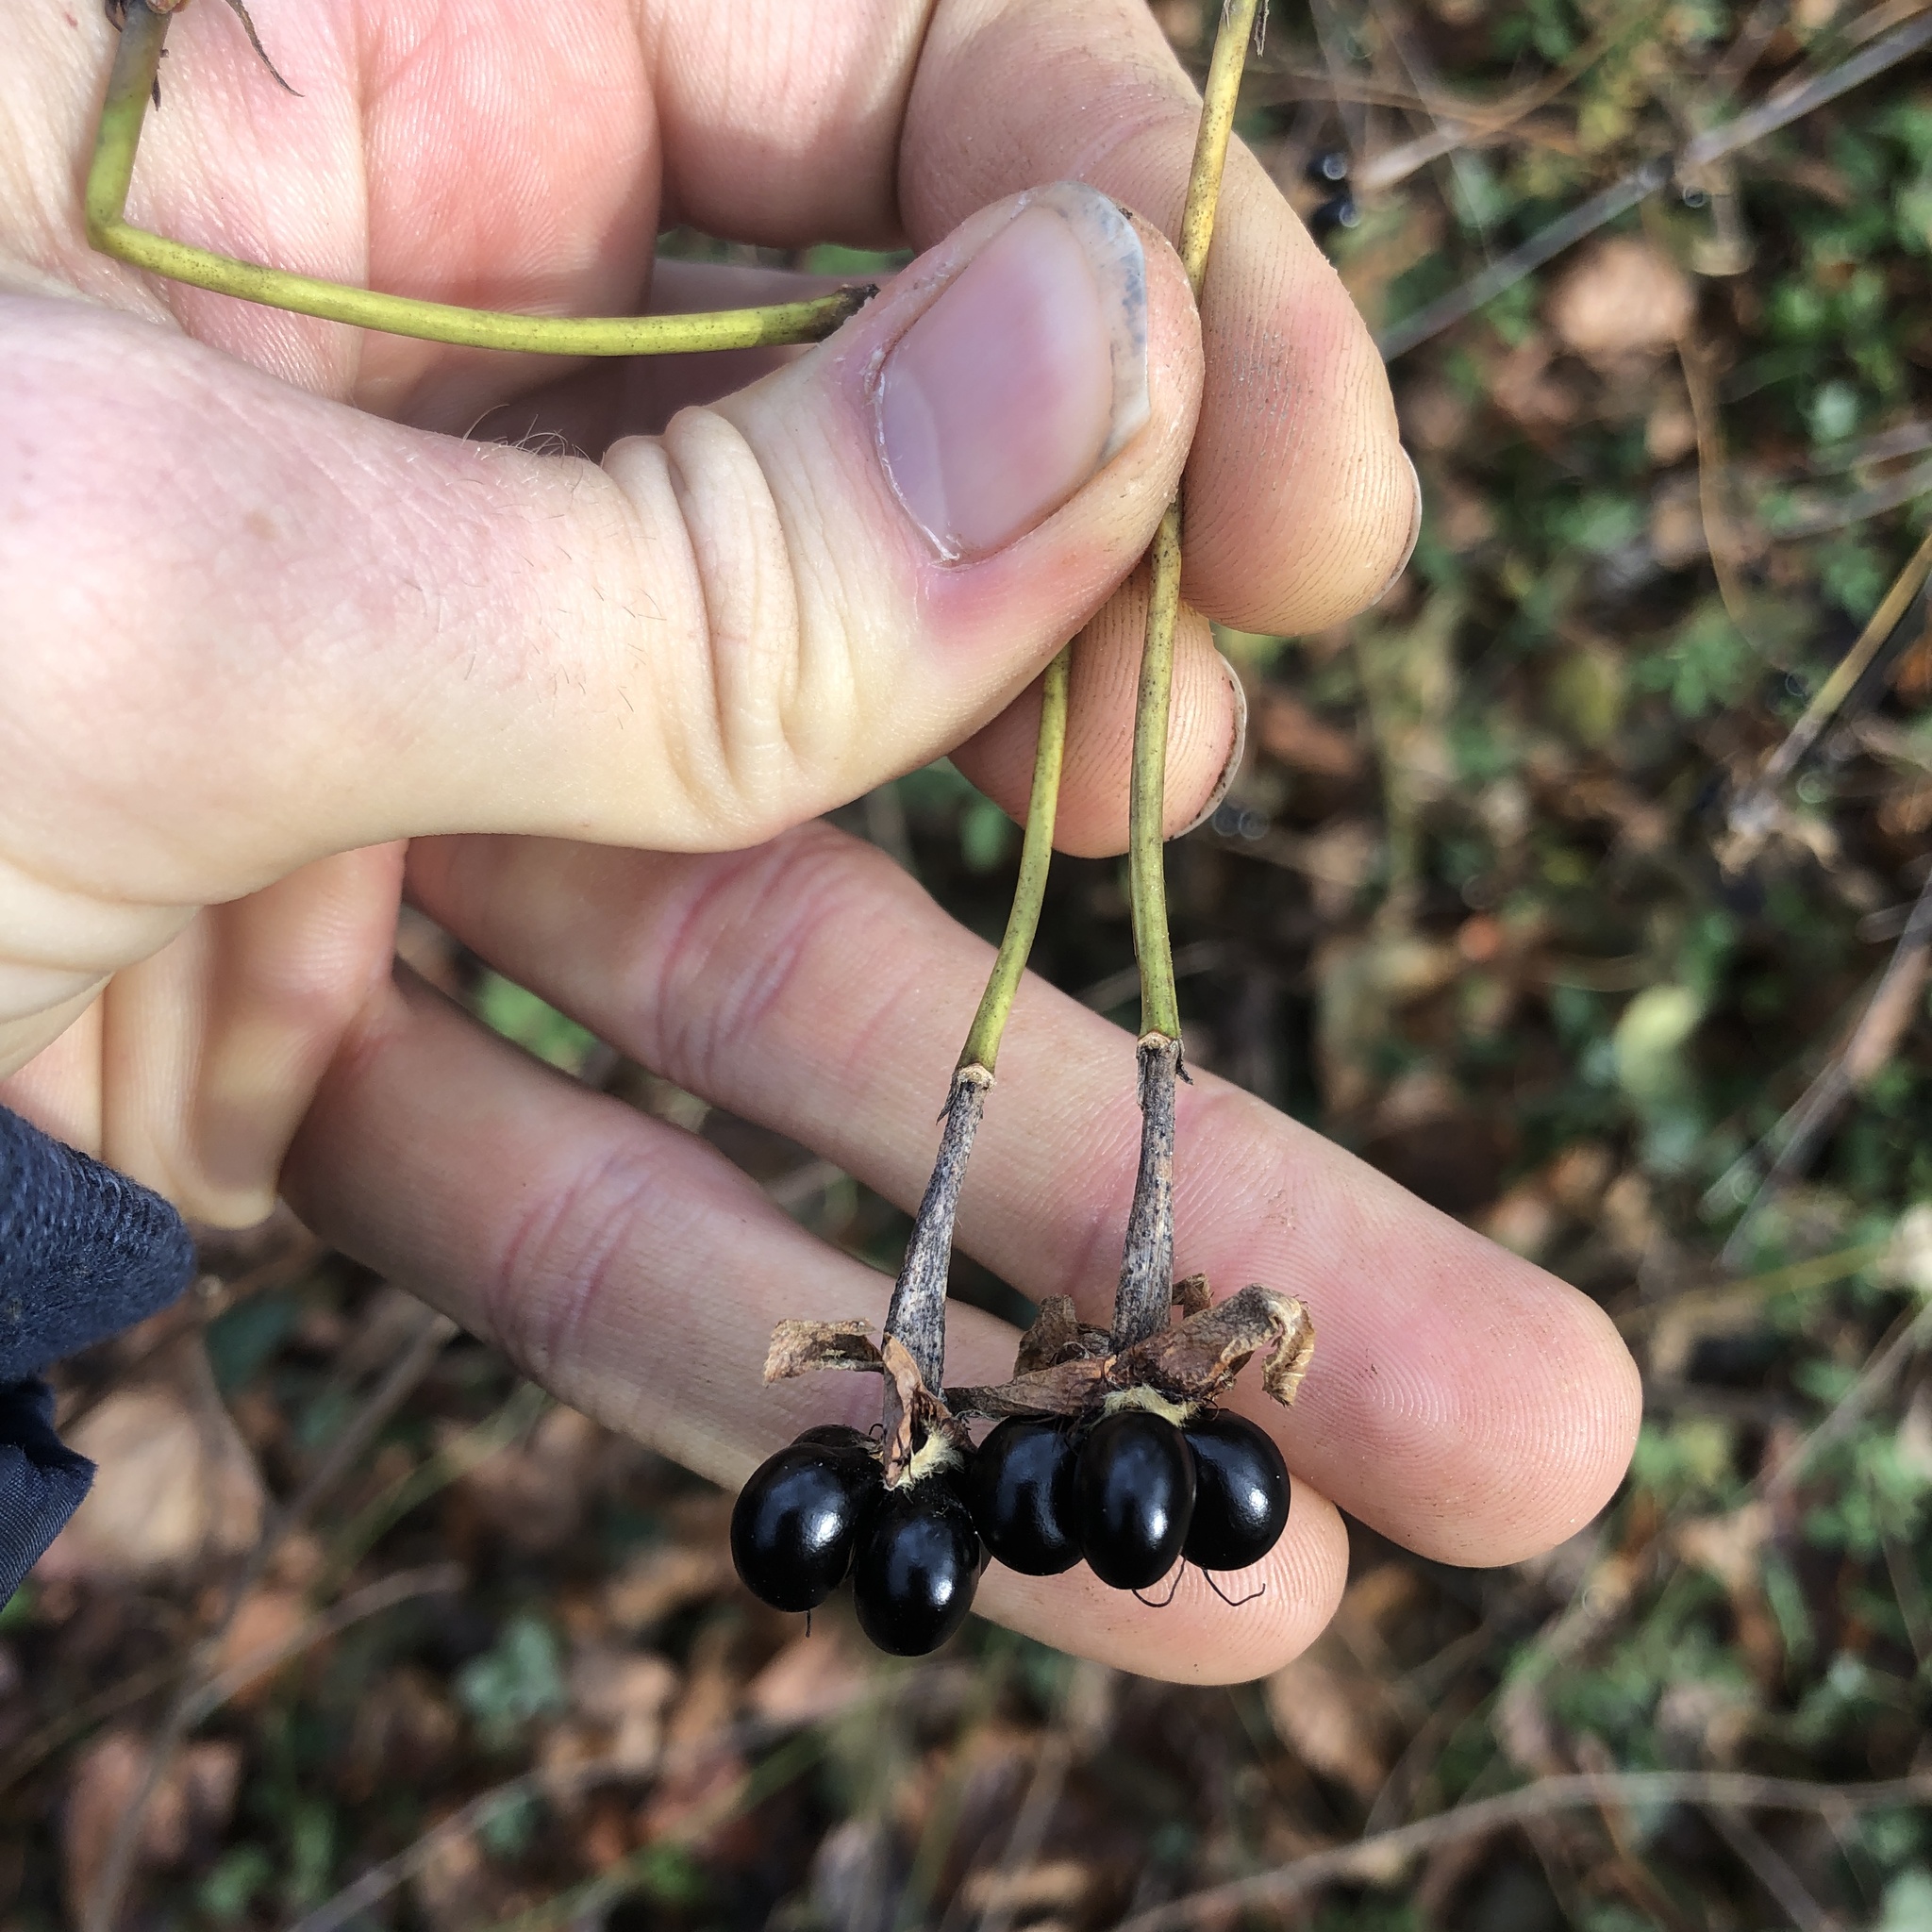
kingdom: Plantae
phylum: Tracheophyta
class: Magnoliopsida
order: Rosales
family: Rosaceae
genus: Rhodotypos
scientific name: Rhodotypos scandens
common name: Jetbead
